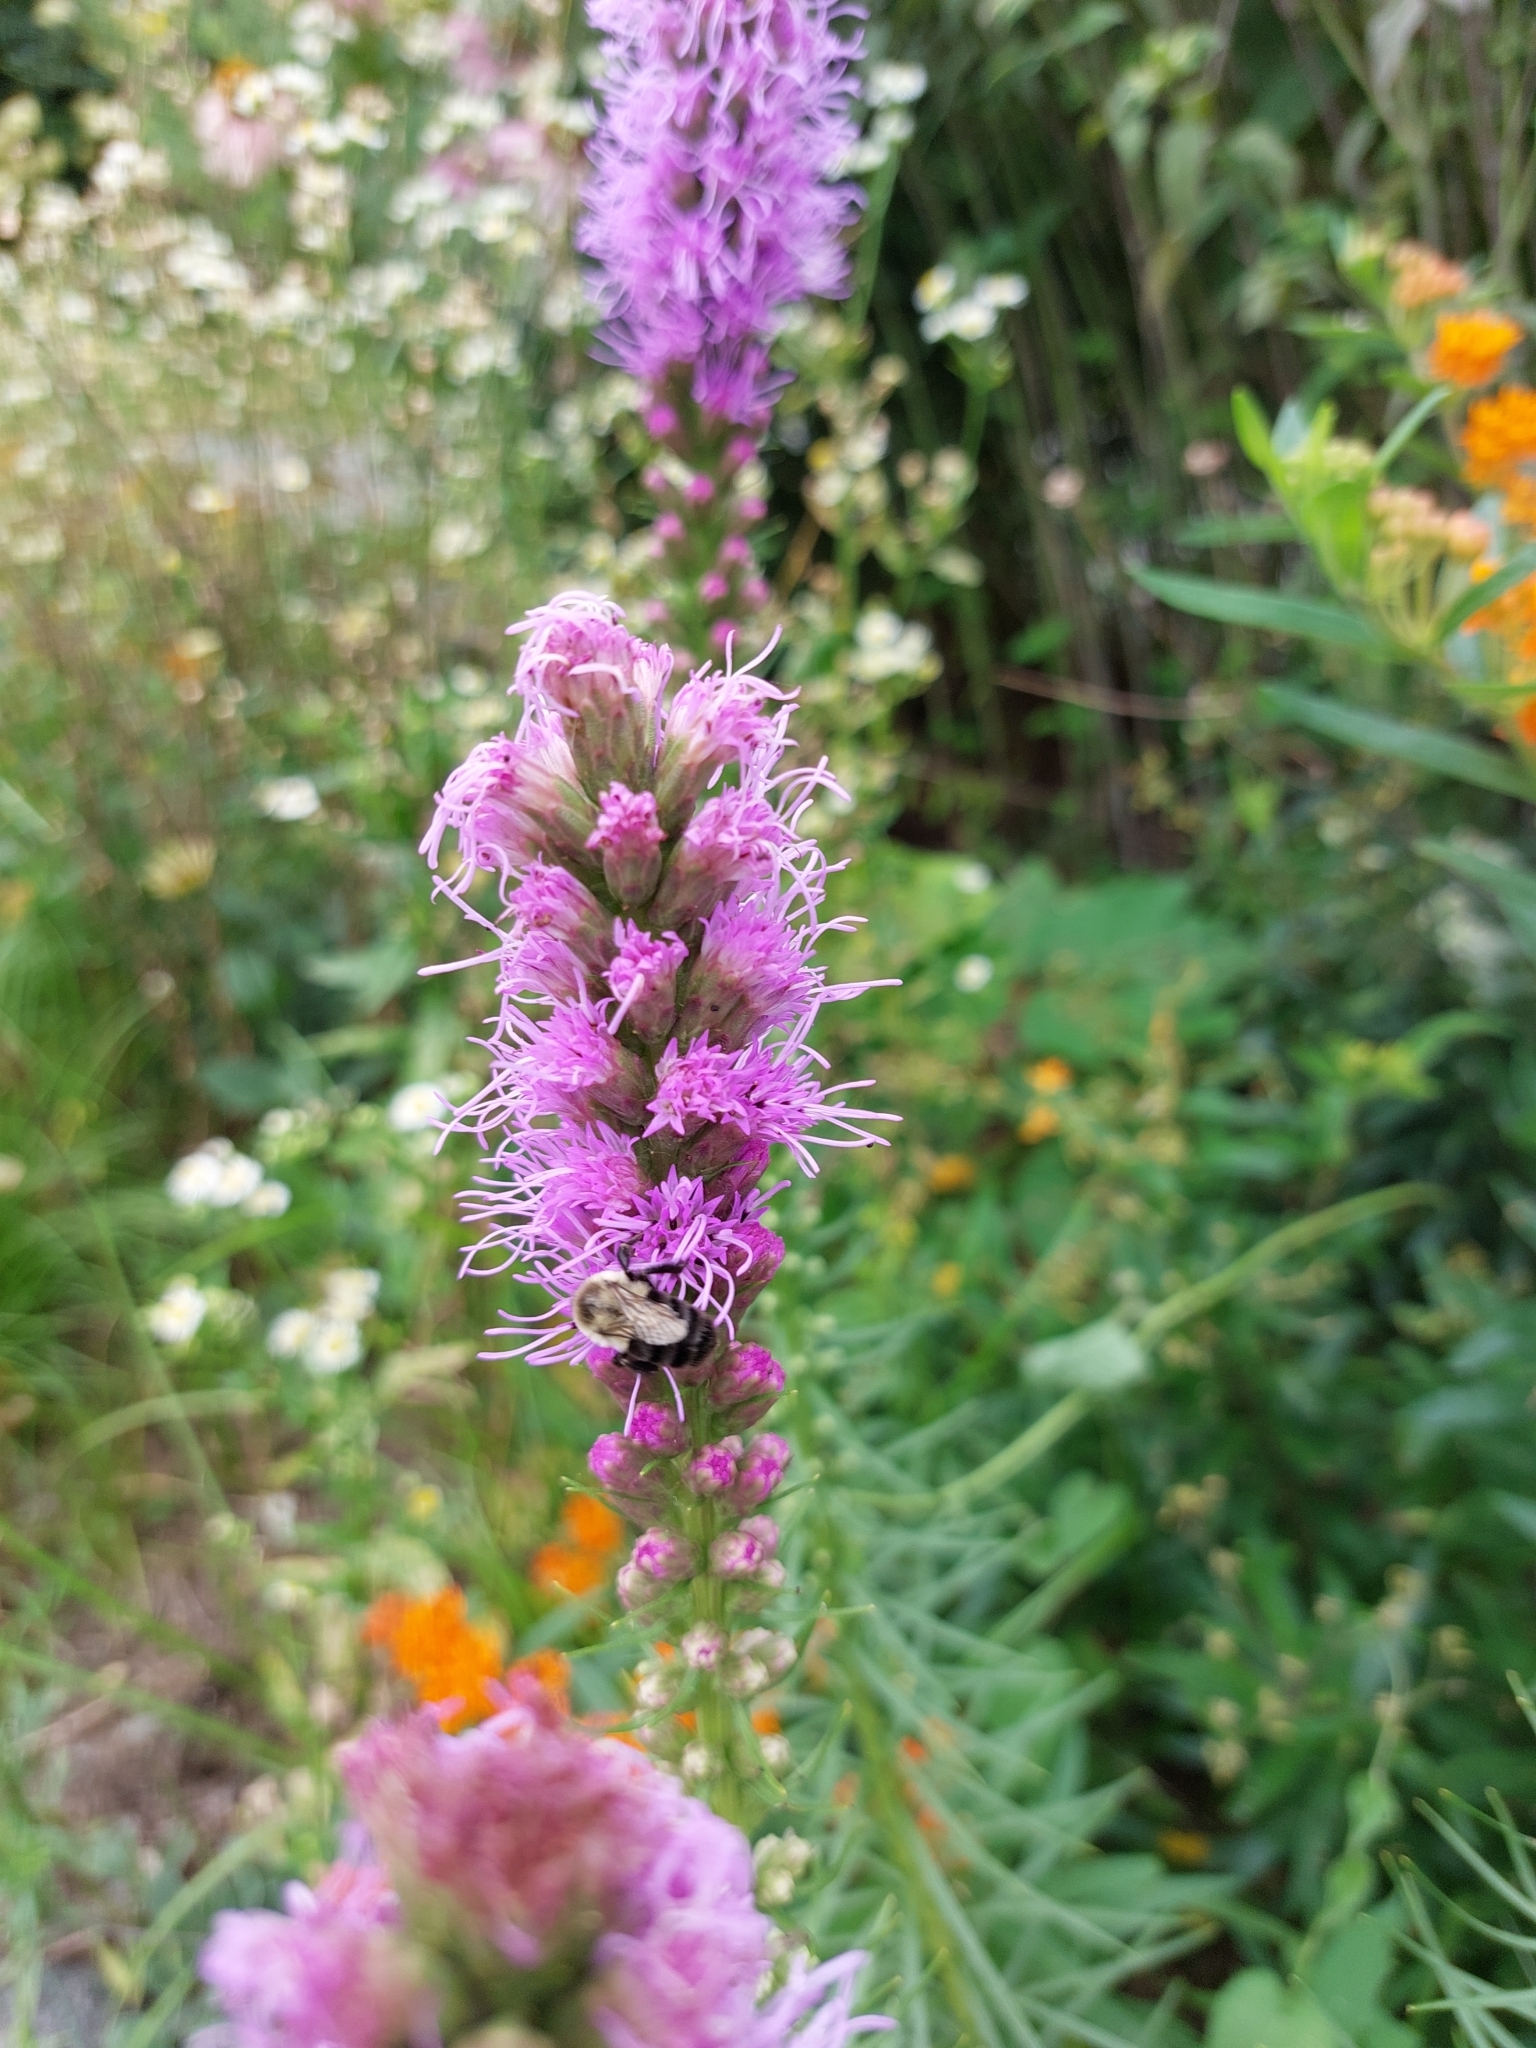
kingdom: Animalia
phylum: Arthropoda
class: Insecta
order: Hymenoptera
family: Apidae
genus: Bombus
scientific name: Bombus impatiens
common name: Common eastern bumble bee
